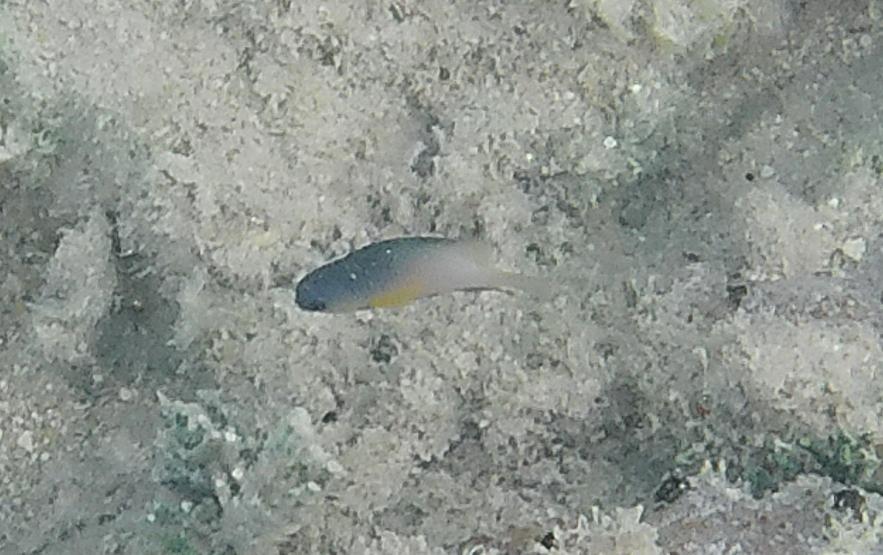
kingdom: Animalia
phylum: Chordata
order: Perciformes
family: Pomacentridae
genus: Stegastes
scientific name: Stegastes partitus
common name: Bicolor damselfish
